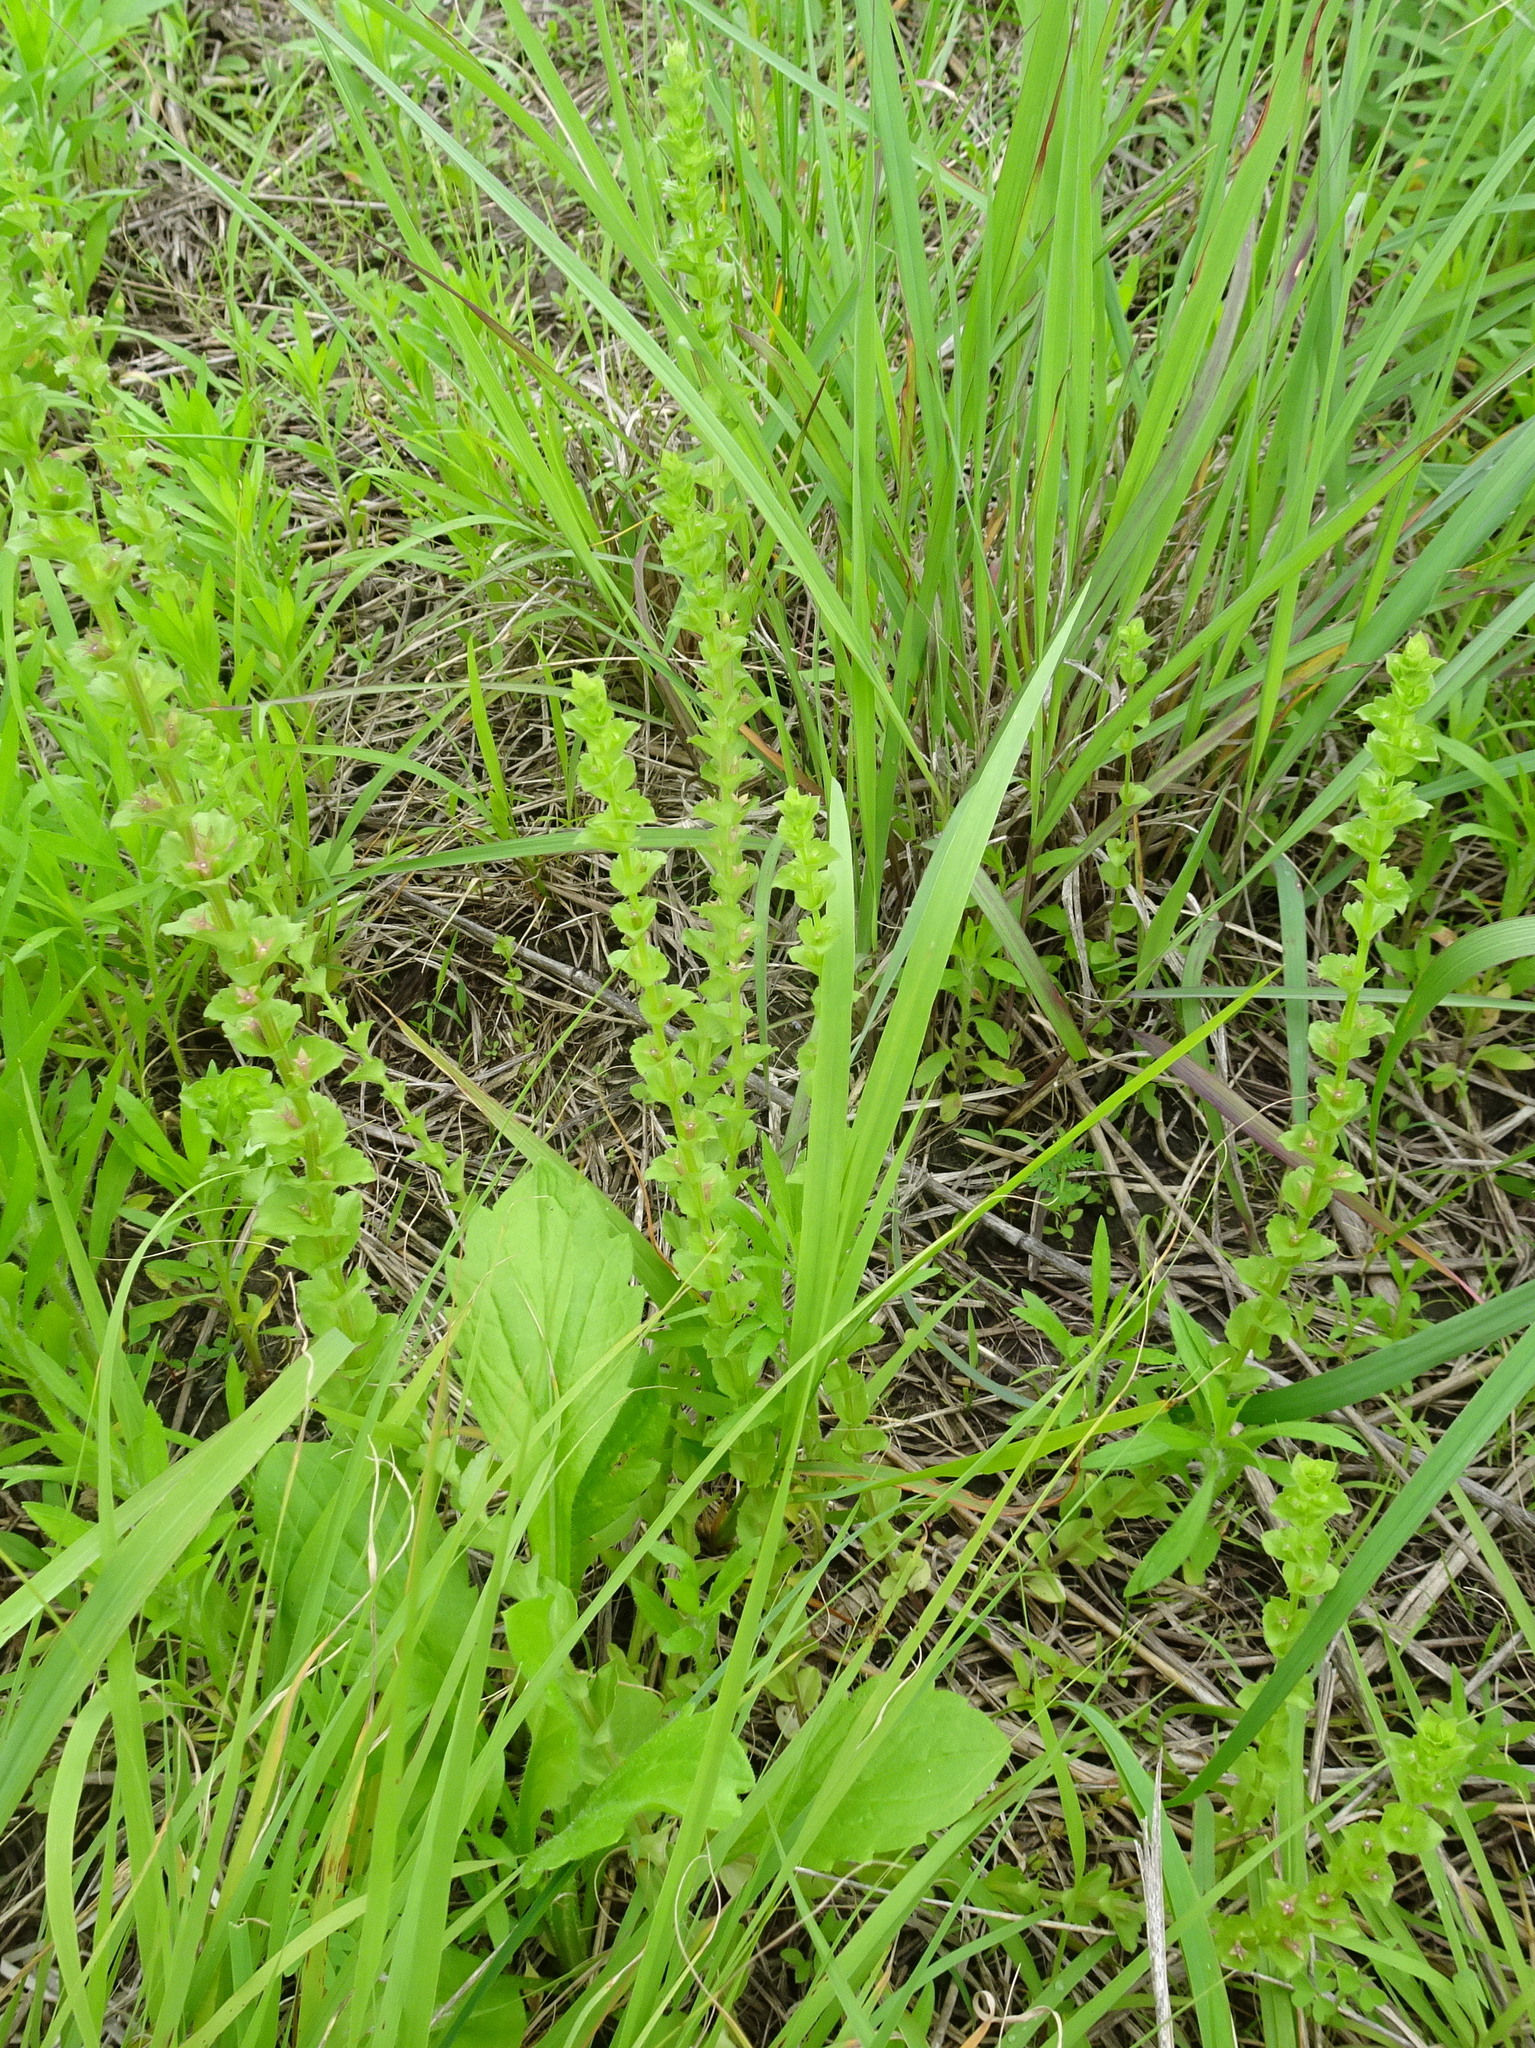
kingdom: Plantae
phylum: Tracheophyta
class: Magnoliopsida
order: Asterales
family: Campanulaceae
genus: Triodanis
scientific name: Triodanis perfoliata
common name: Clasping venus' looking-glass
